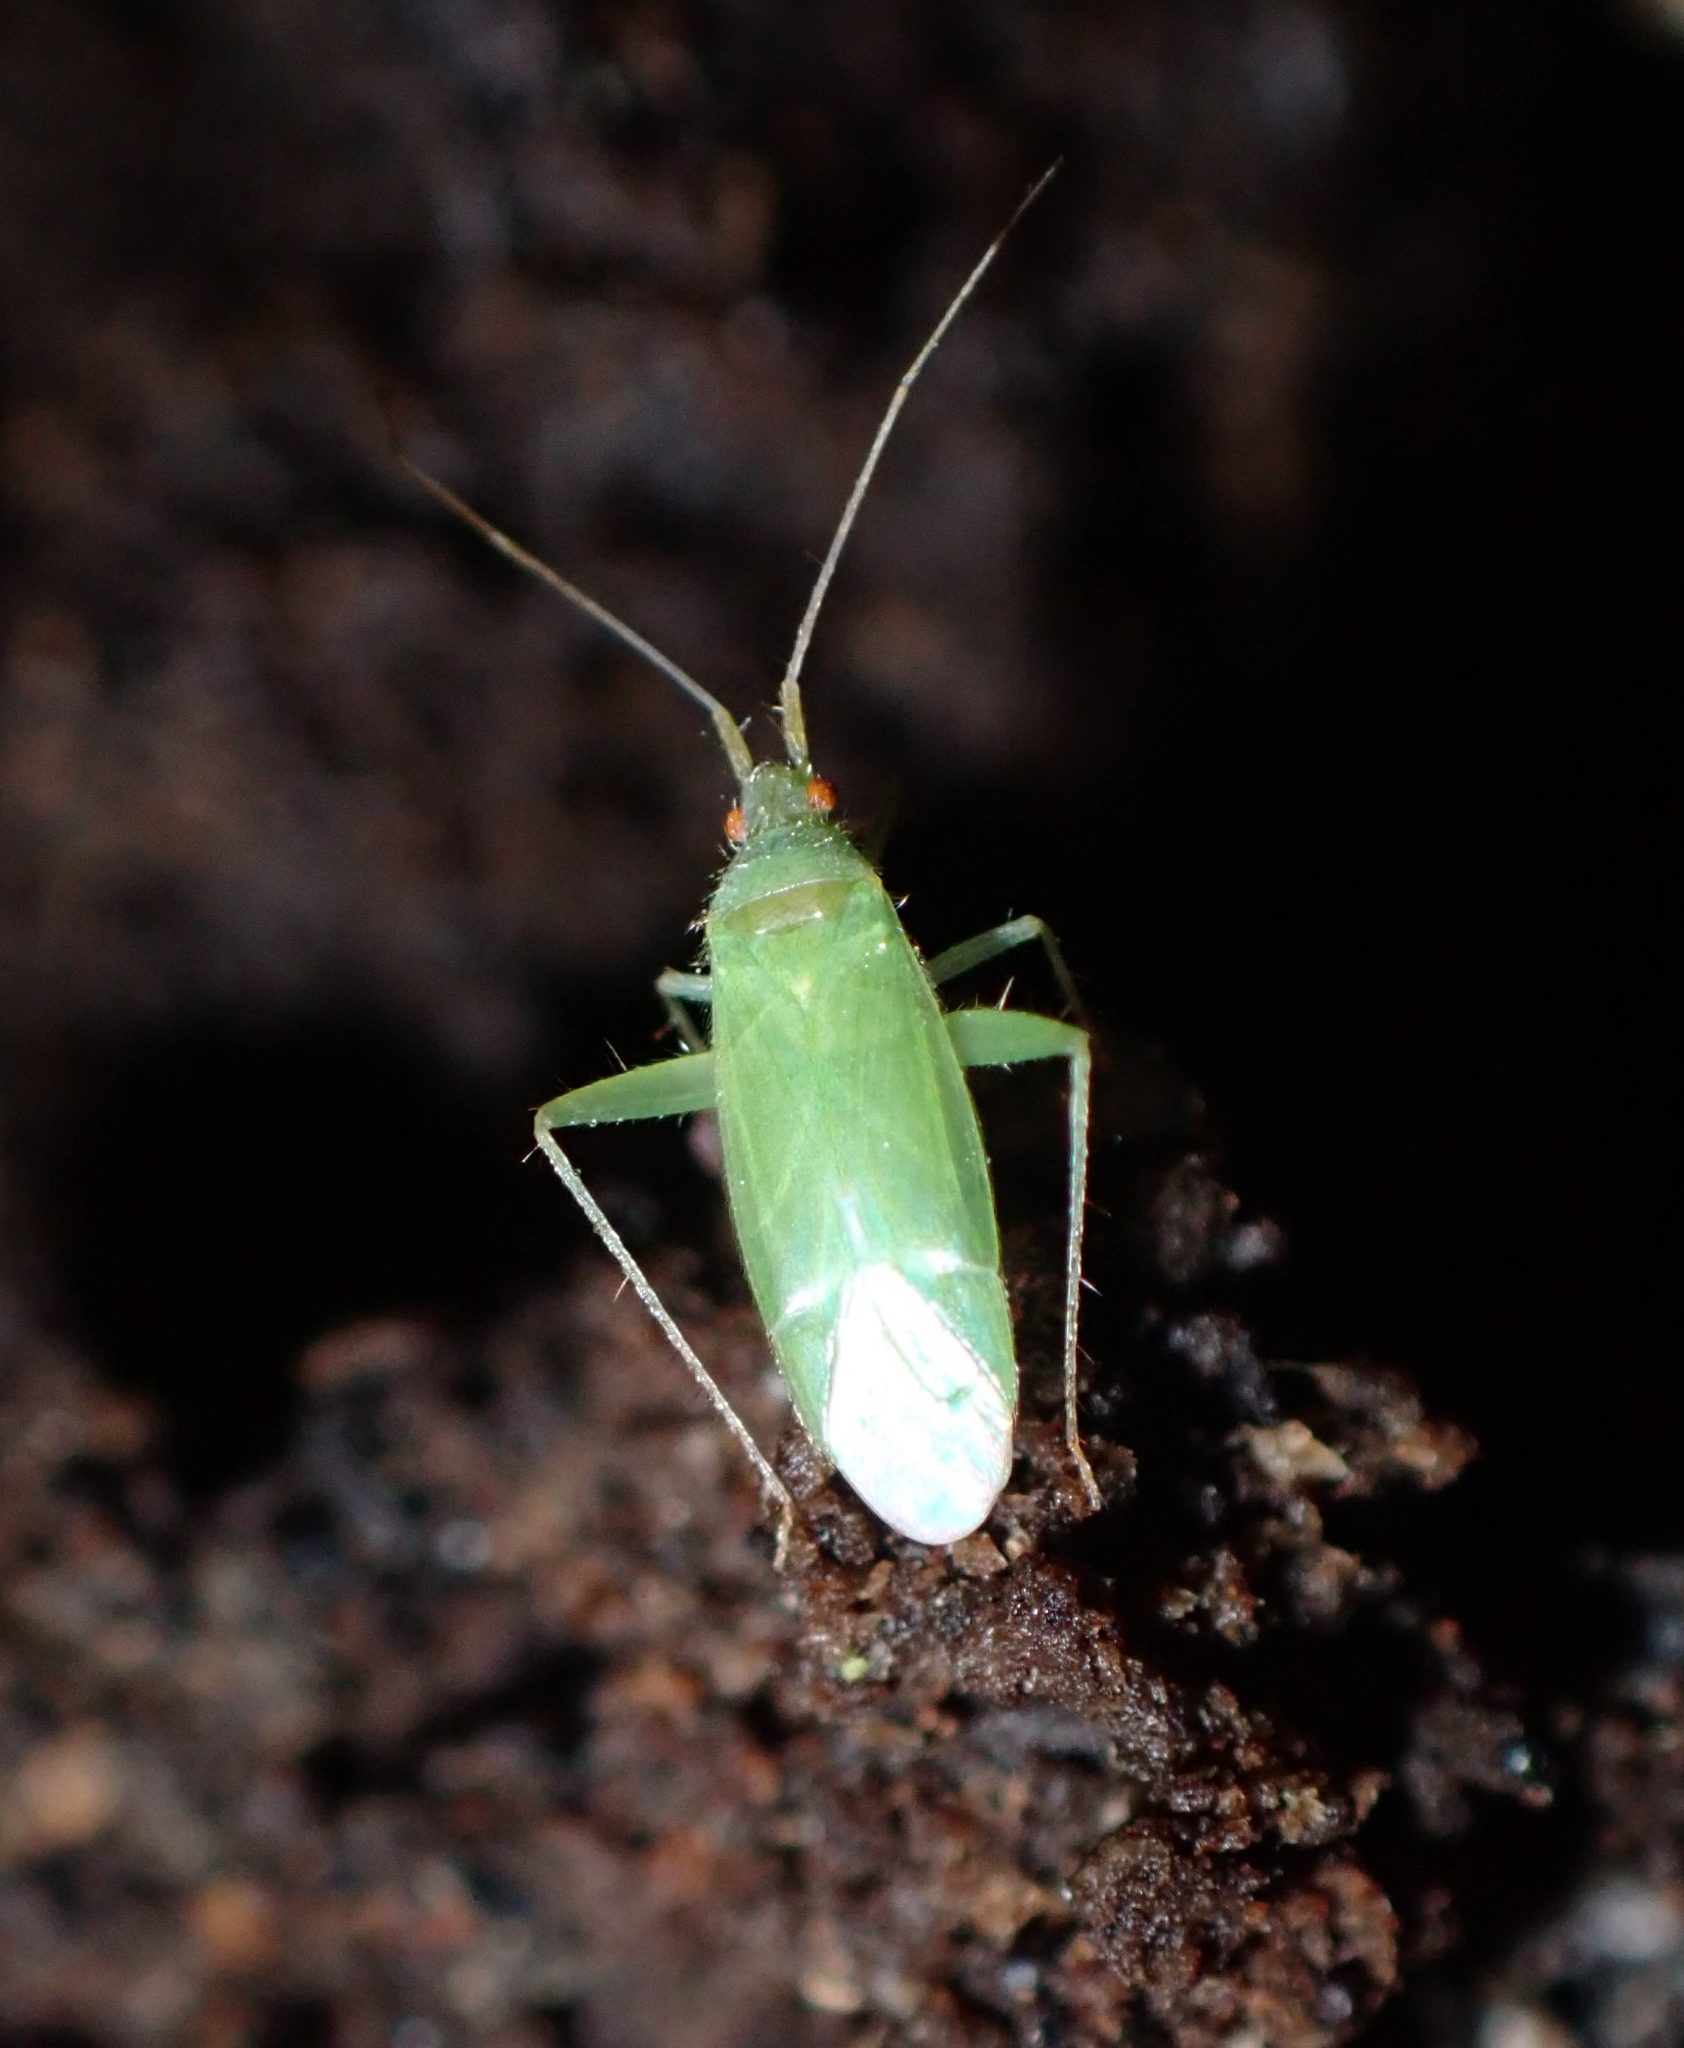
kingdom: Animalia
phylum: Arthropoda
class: Insecta
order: Hemiptera
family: Miridae
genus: Canariocoris
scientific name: Canariocoris viburni
